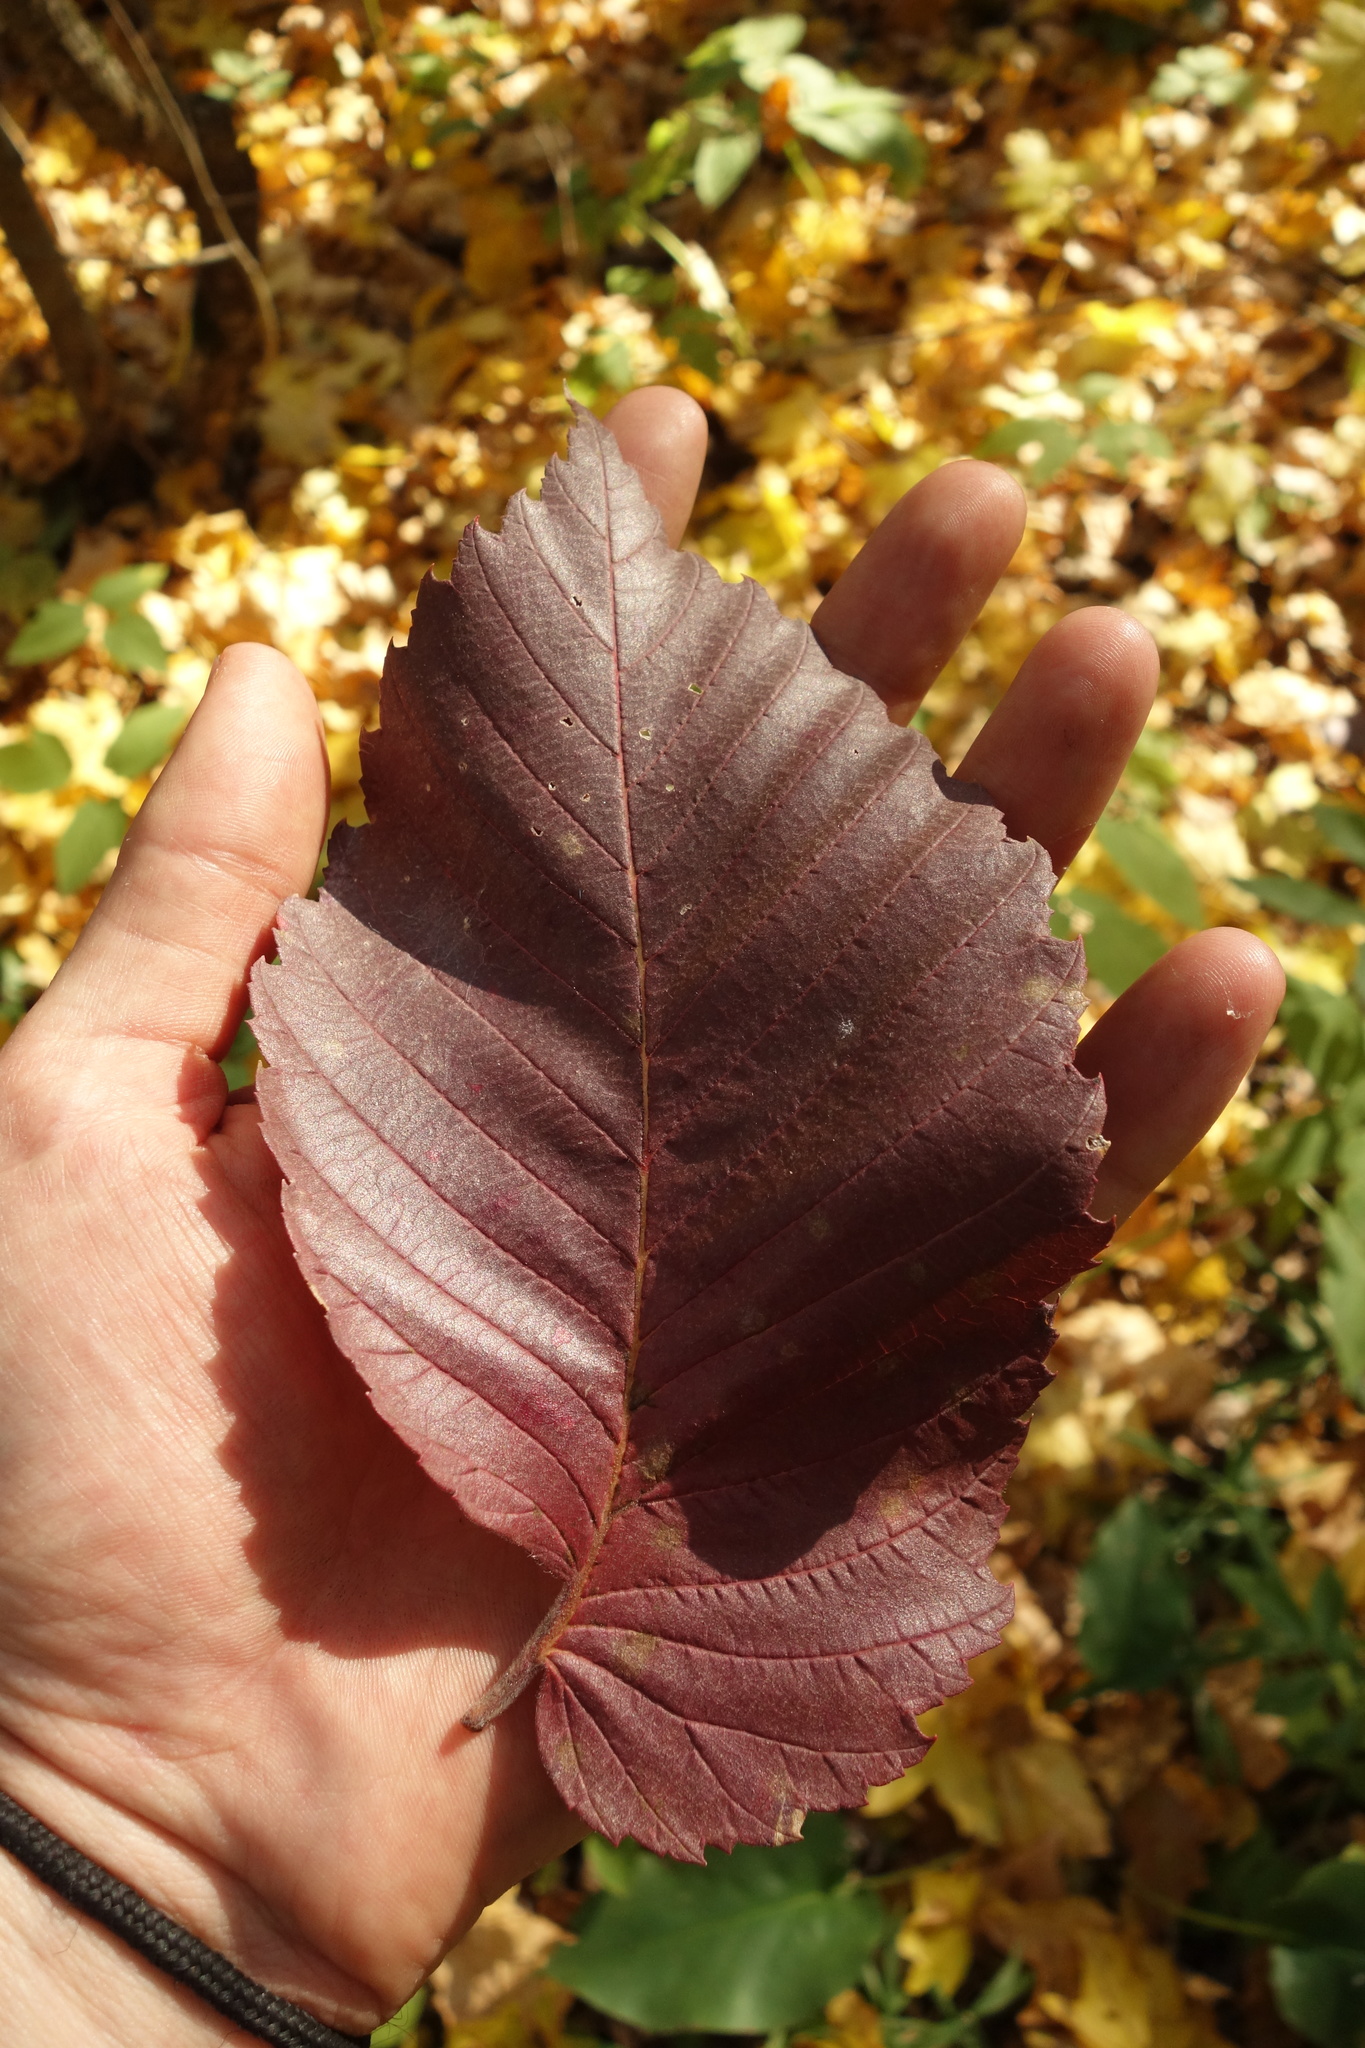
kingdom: Plantae
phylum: Tracheophyta
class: Magnoliopsida
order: Rosales
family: Ulmaceae
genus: Ulmus
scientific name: Ulmus laevis
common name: European white-elm
